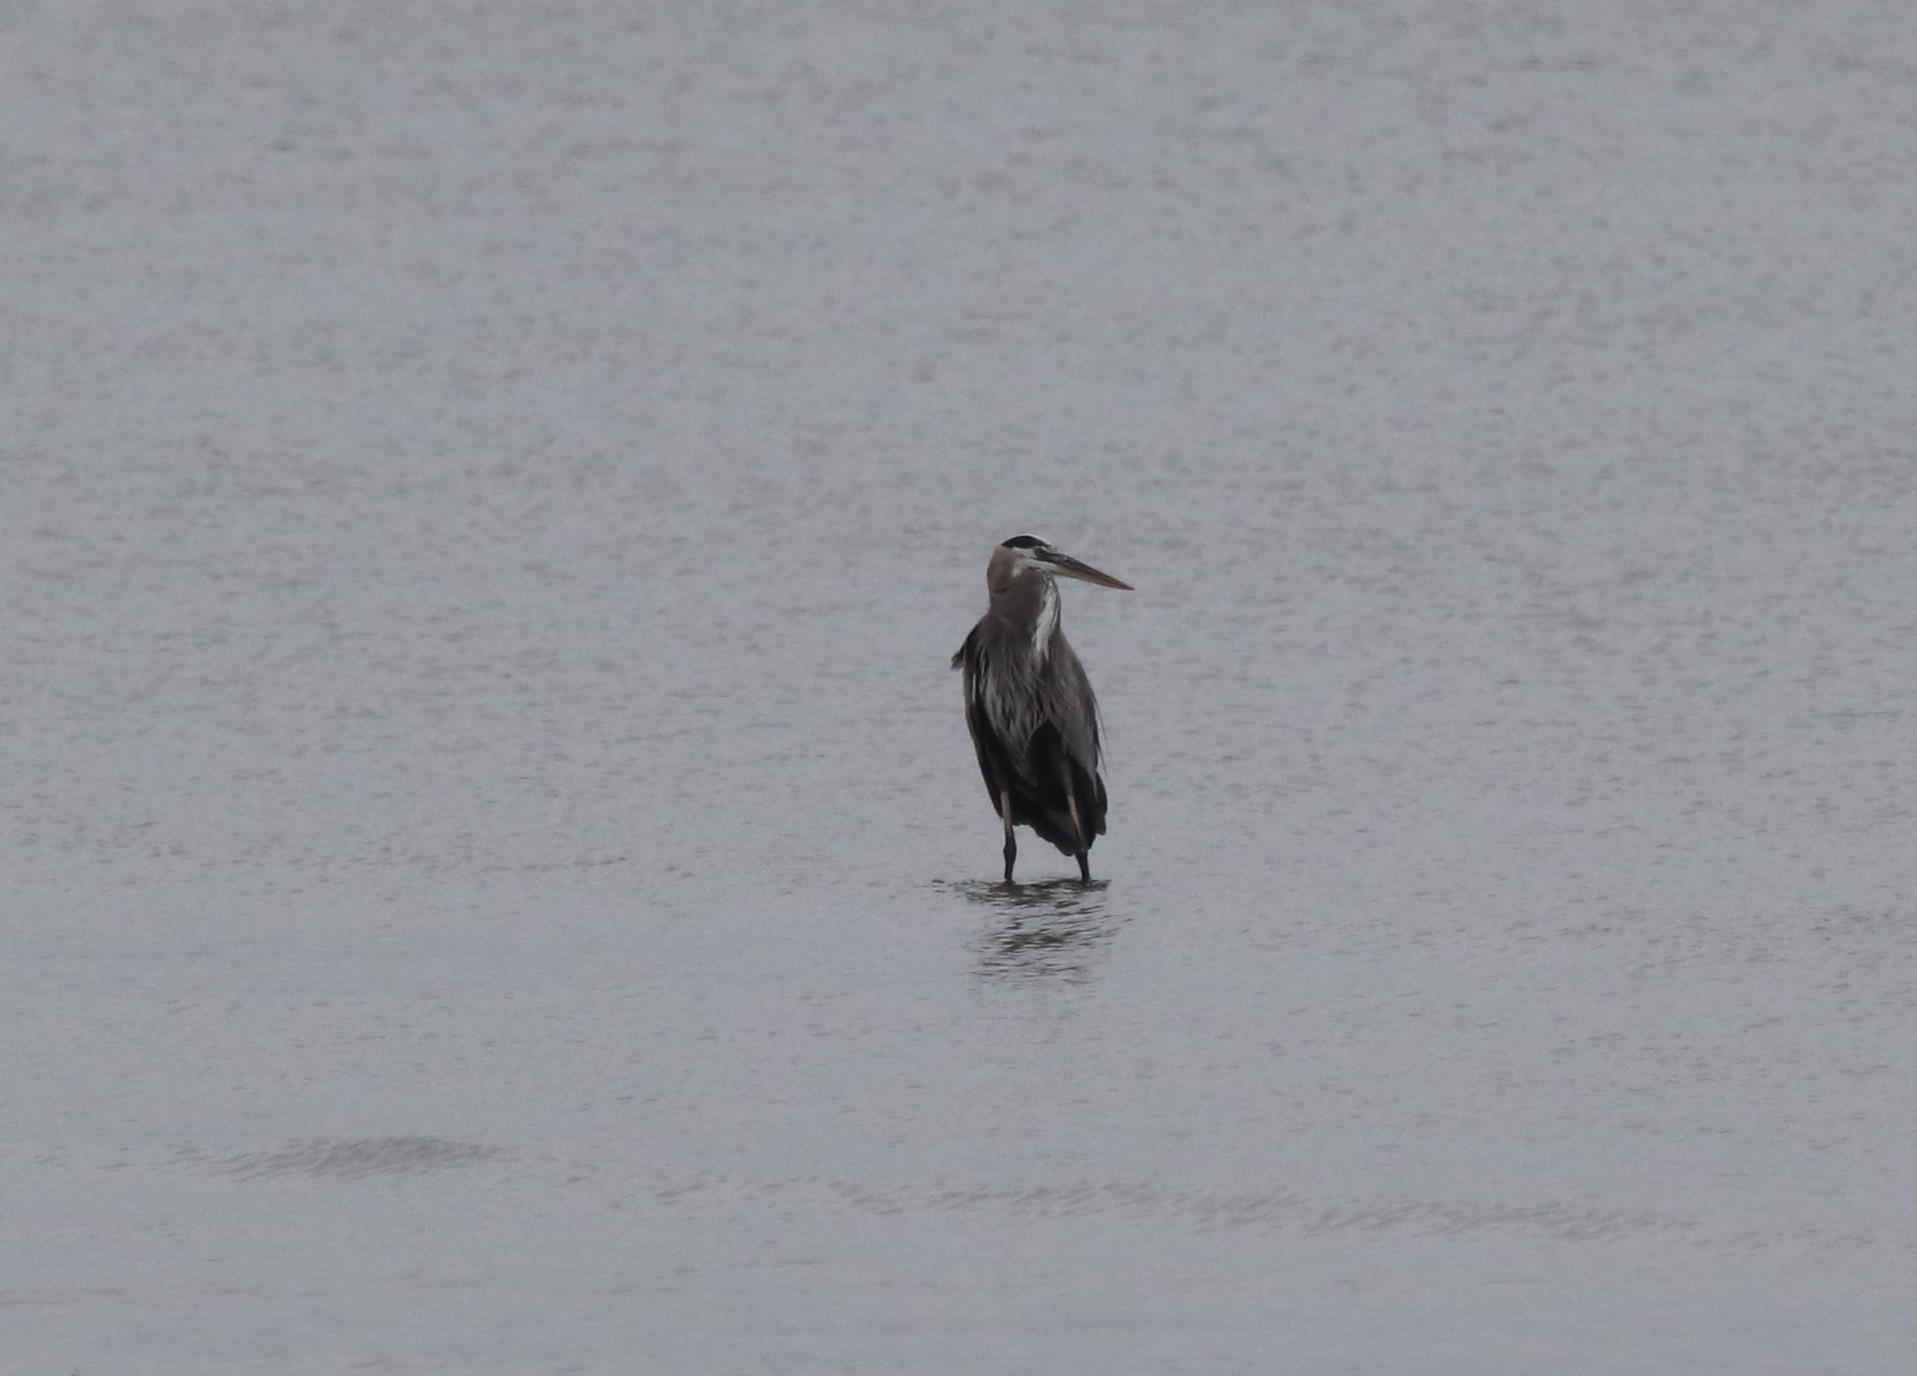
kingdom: Animalia
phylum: Chordata
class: Aves
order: Pelecaniformes
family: Ardeidae
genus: Ardea
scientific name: Ardea herodias
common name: Great blue heron
